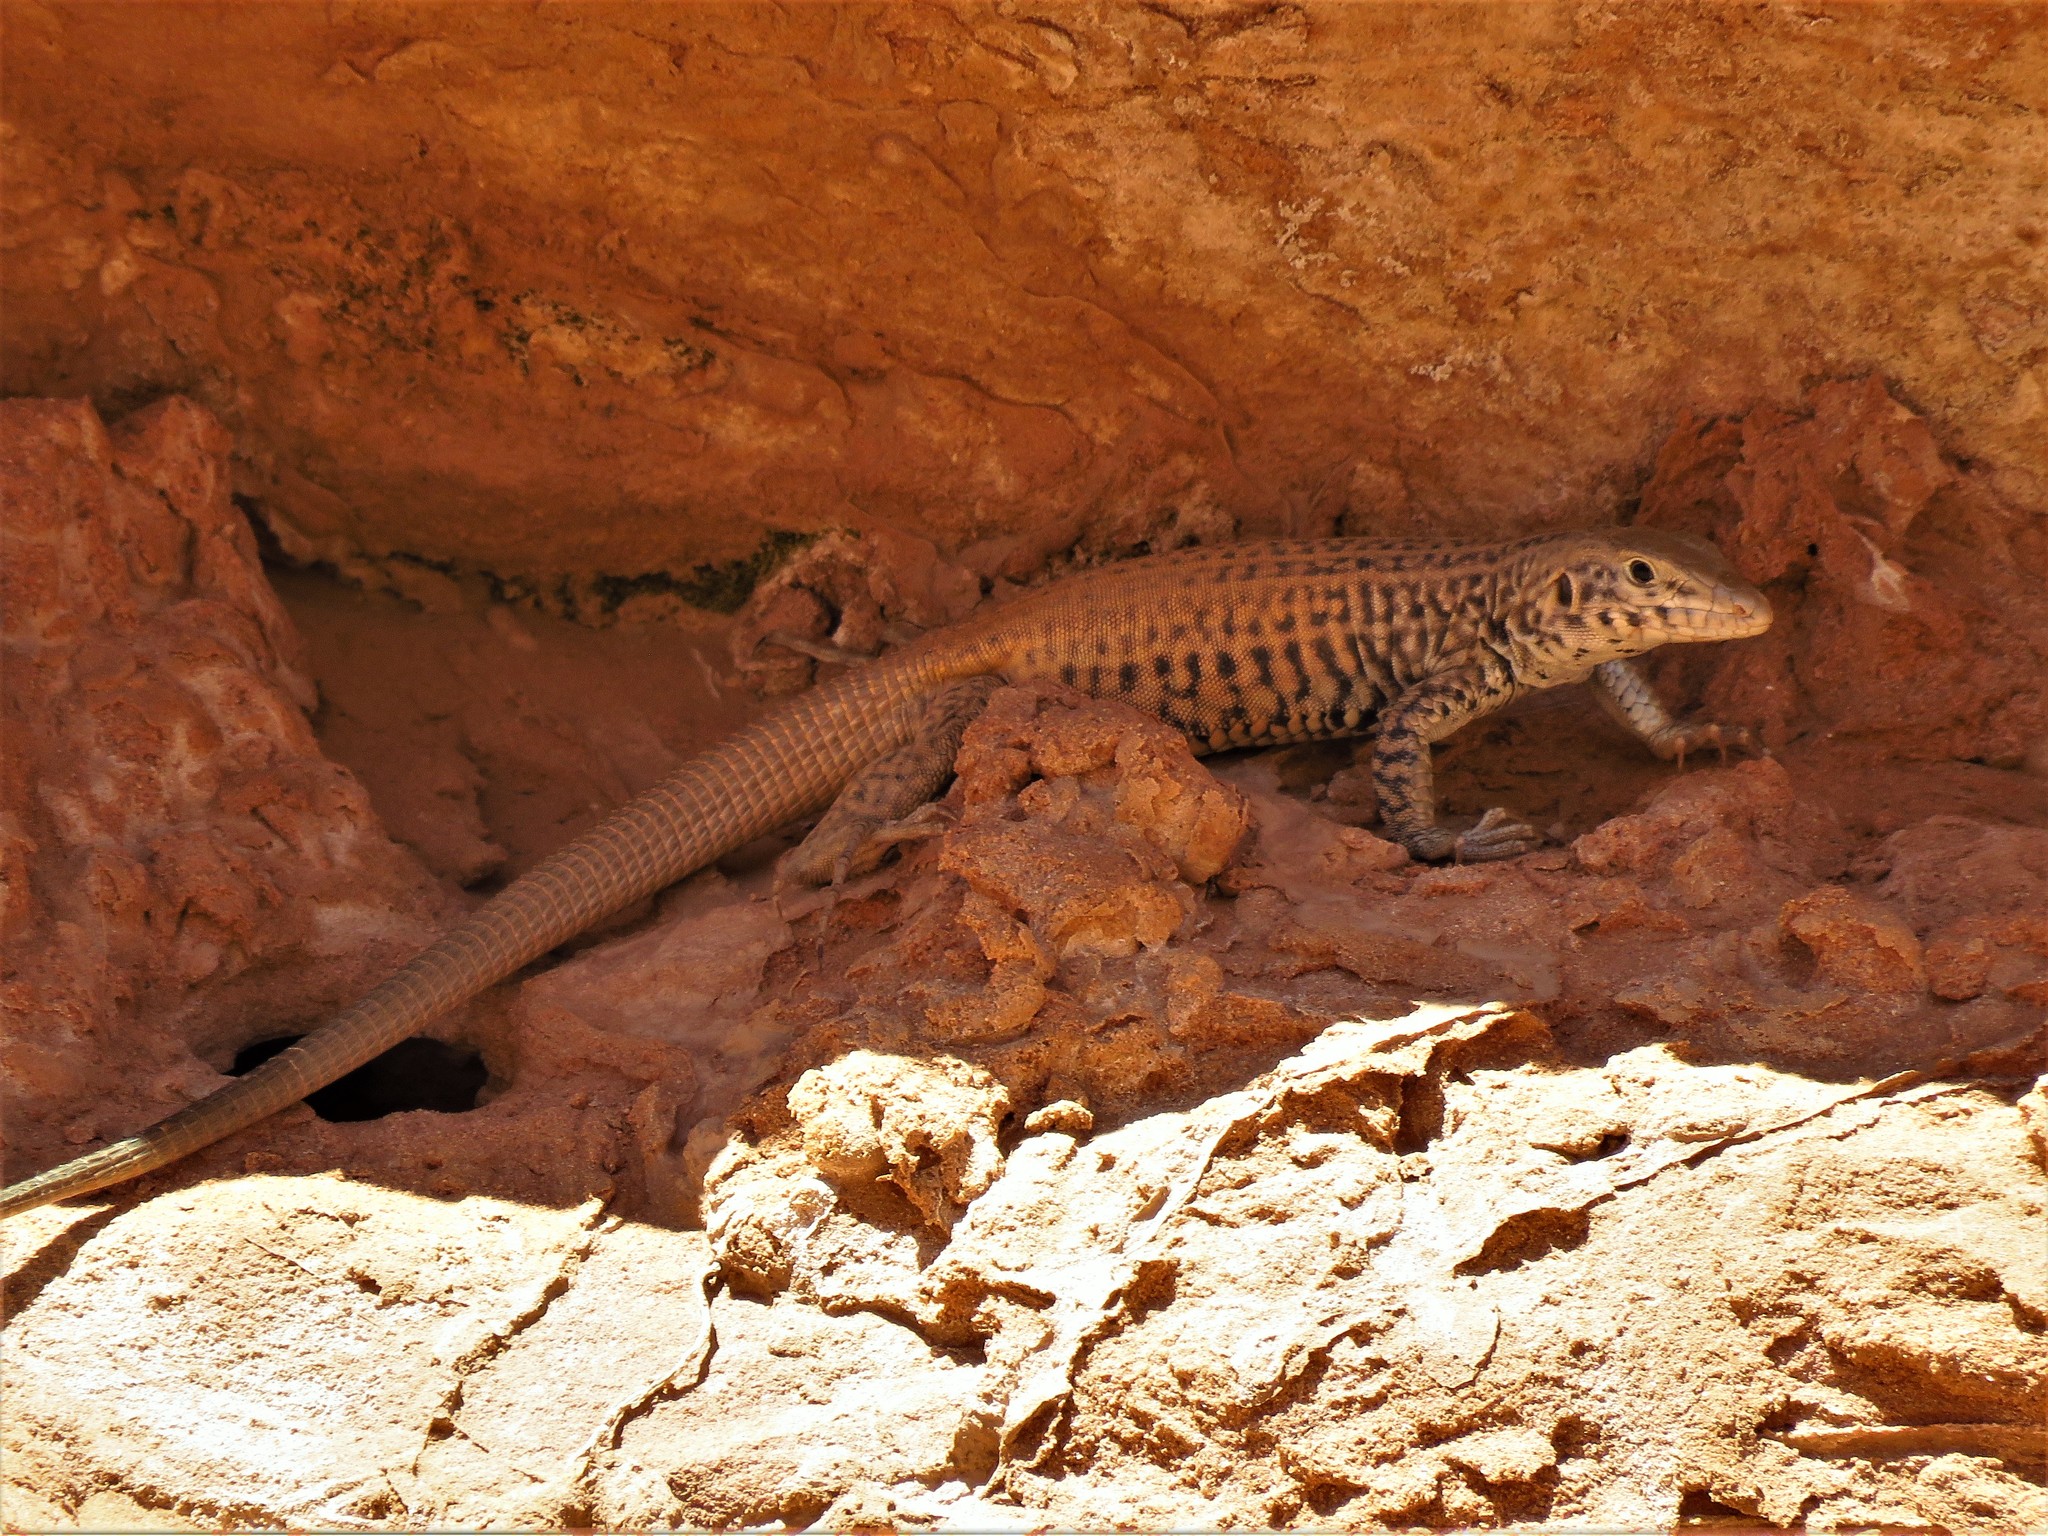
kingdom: Animalia
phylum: Chordata
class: Squamata
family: Teiidae
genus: Aspidoscelis
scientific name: Aspidoscelis tigris
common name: Tiger whiptail
